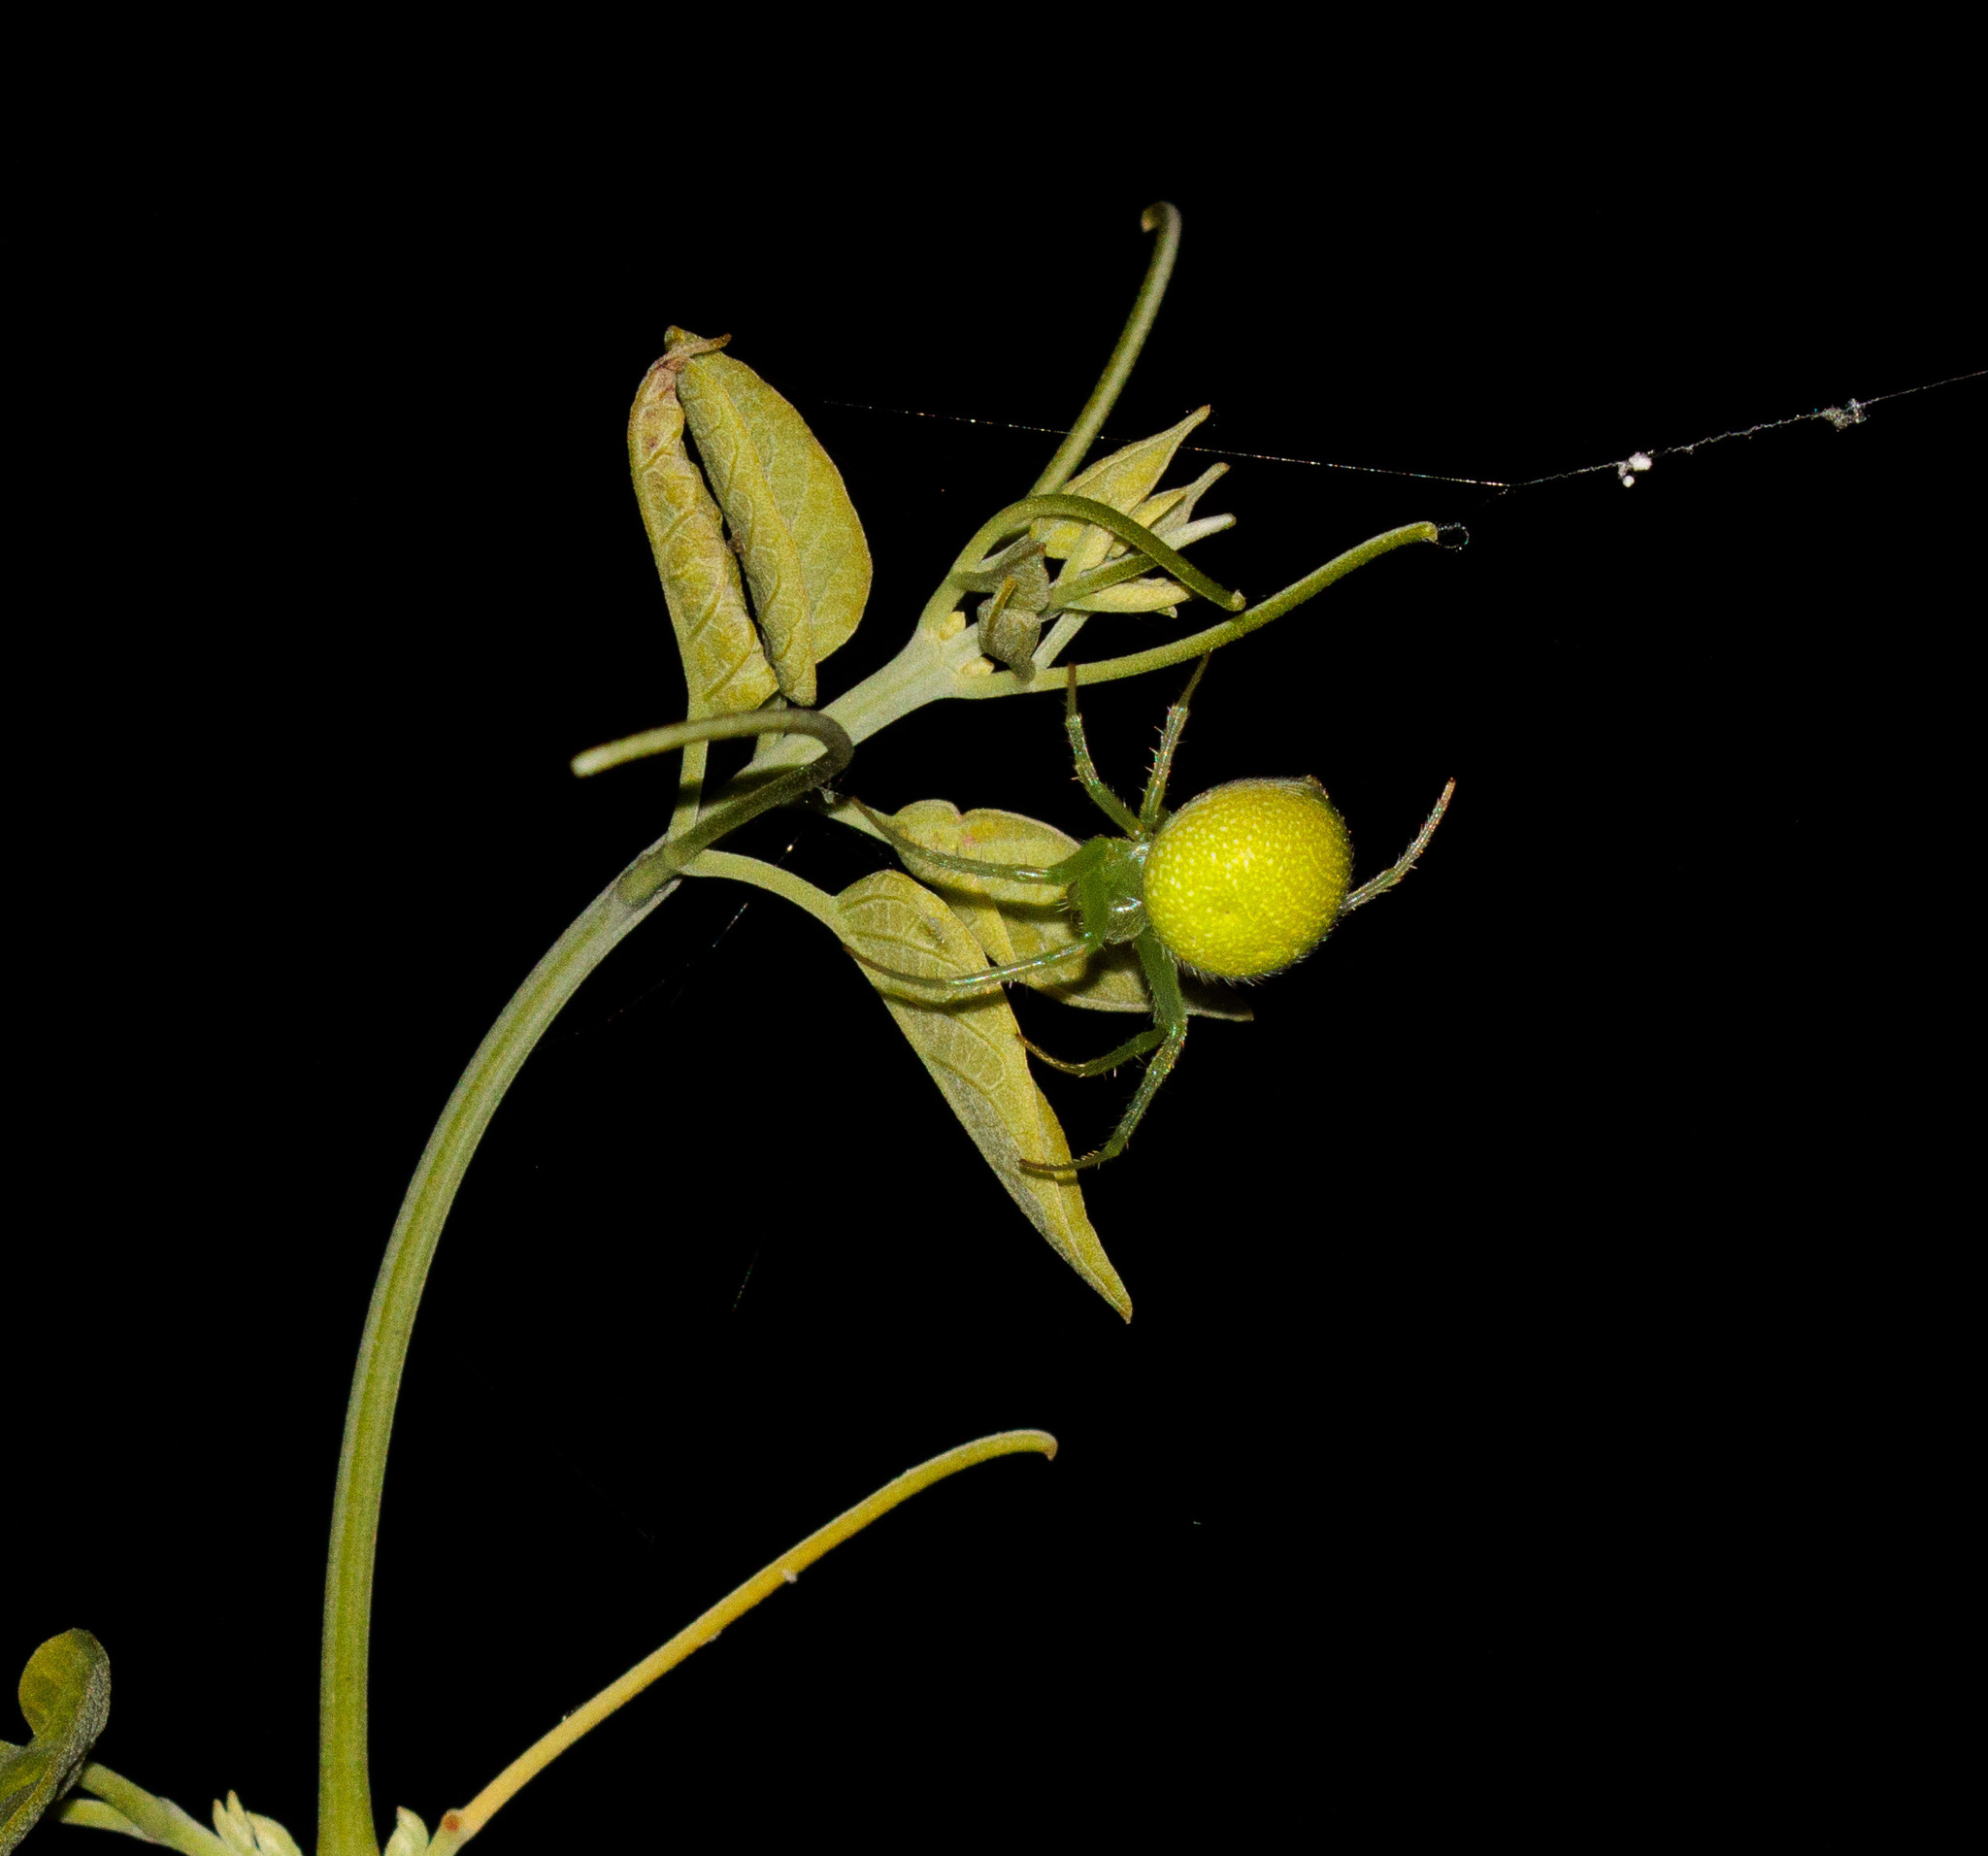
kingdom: Animalia
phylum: Arthropoda
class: Arachnida
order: Araneae
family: Araneidae
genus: Araneus
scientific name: Araneus uniformis
